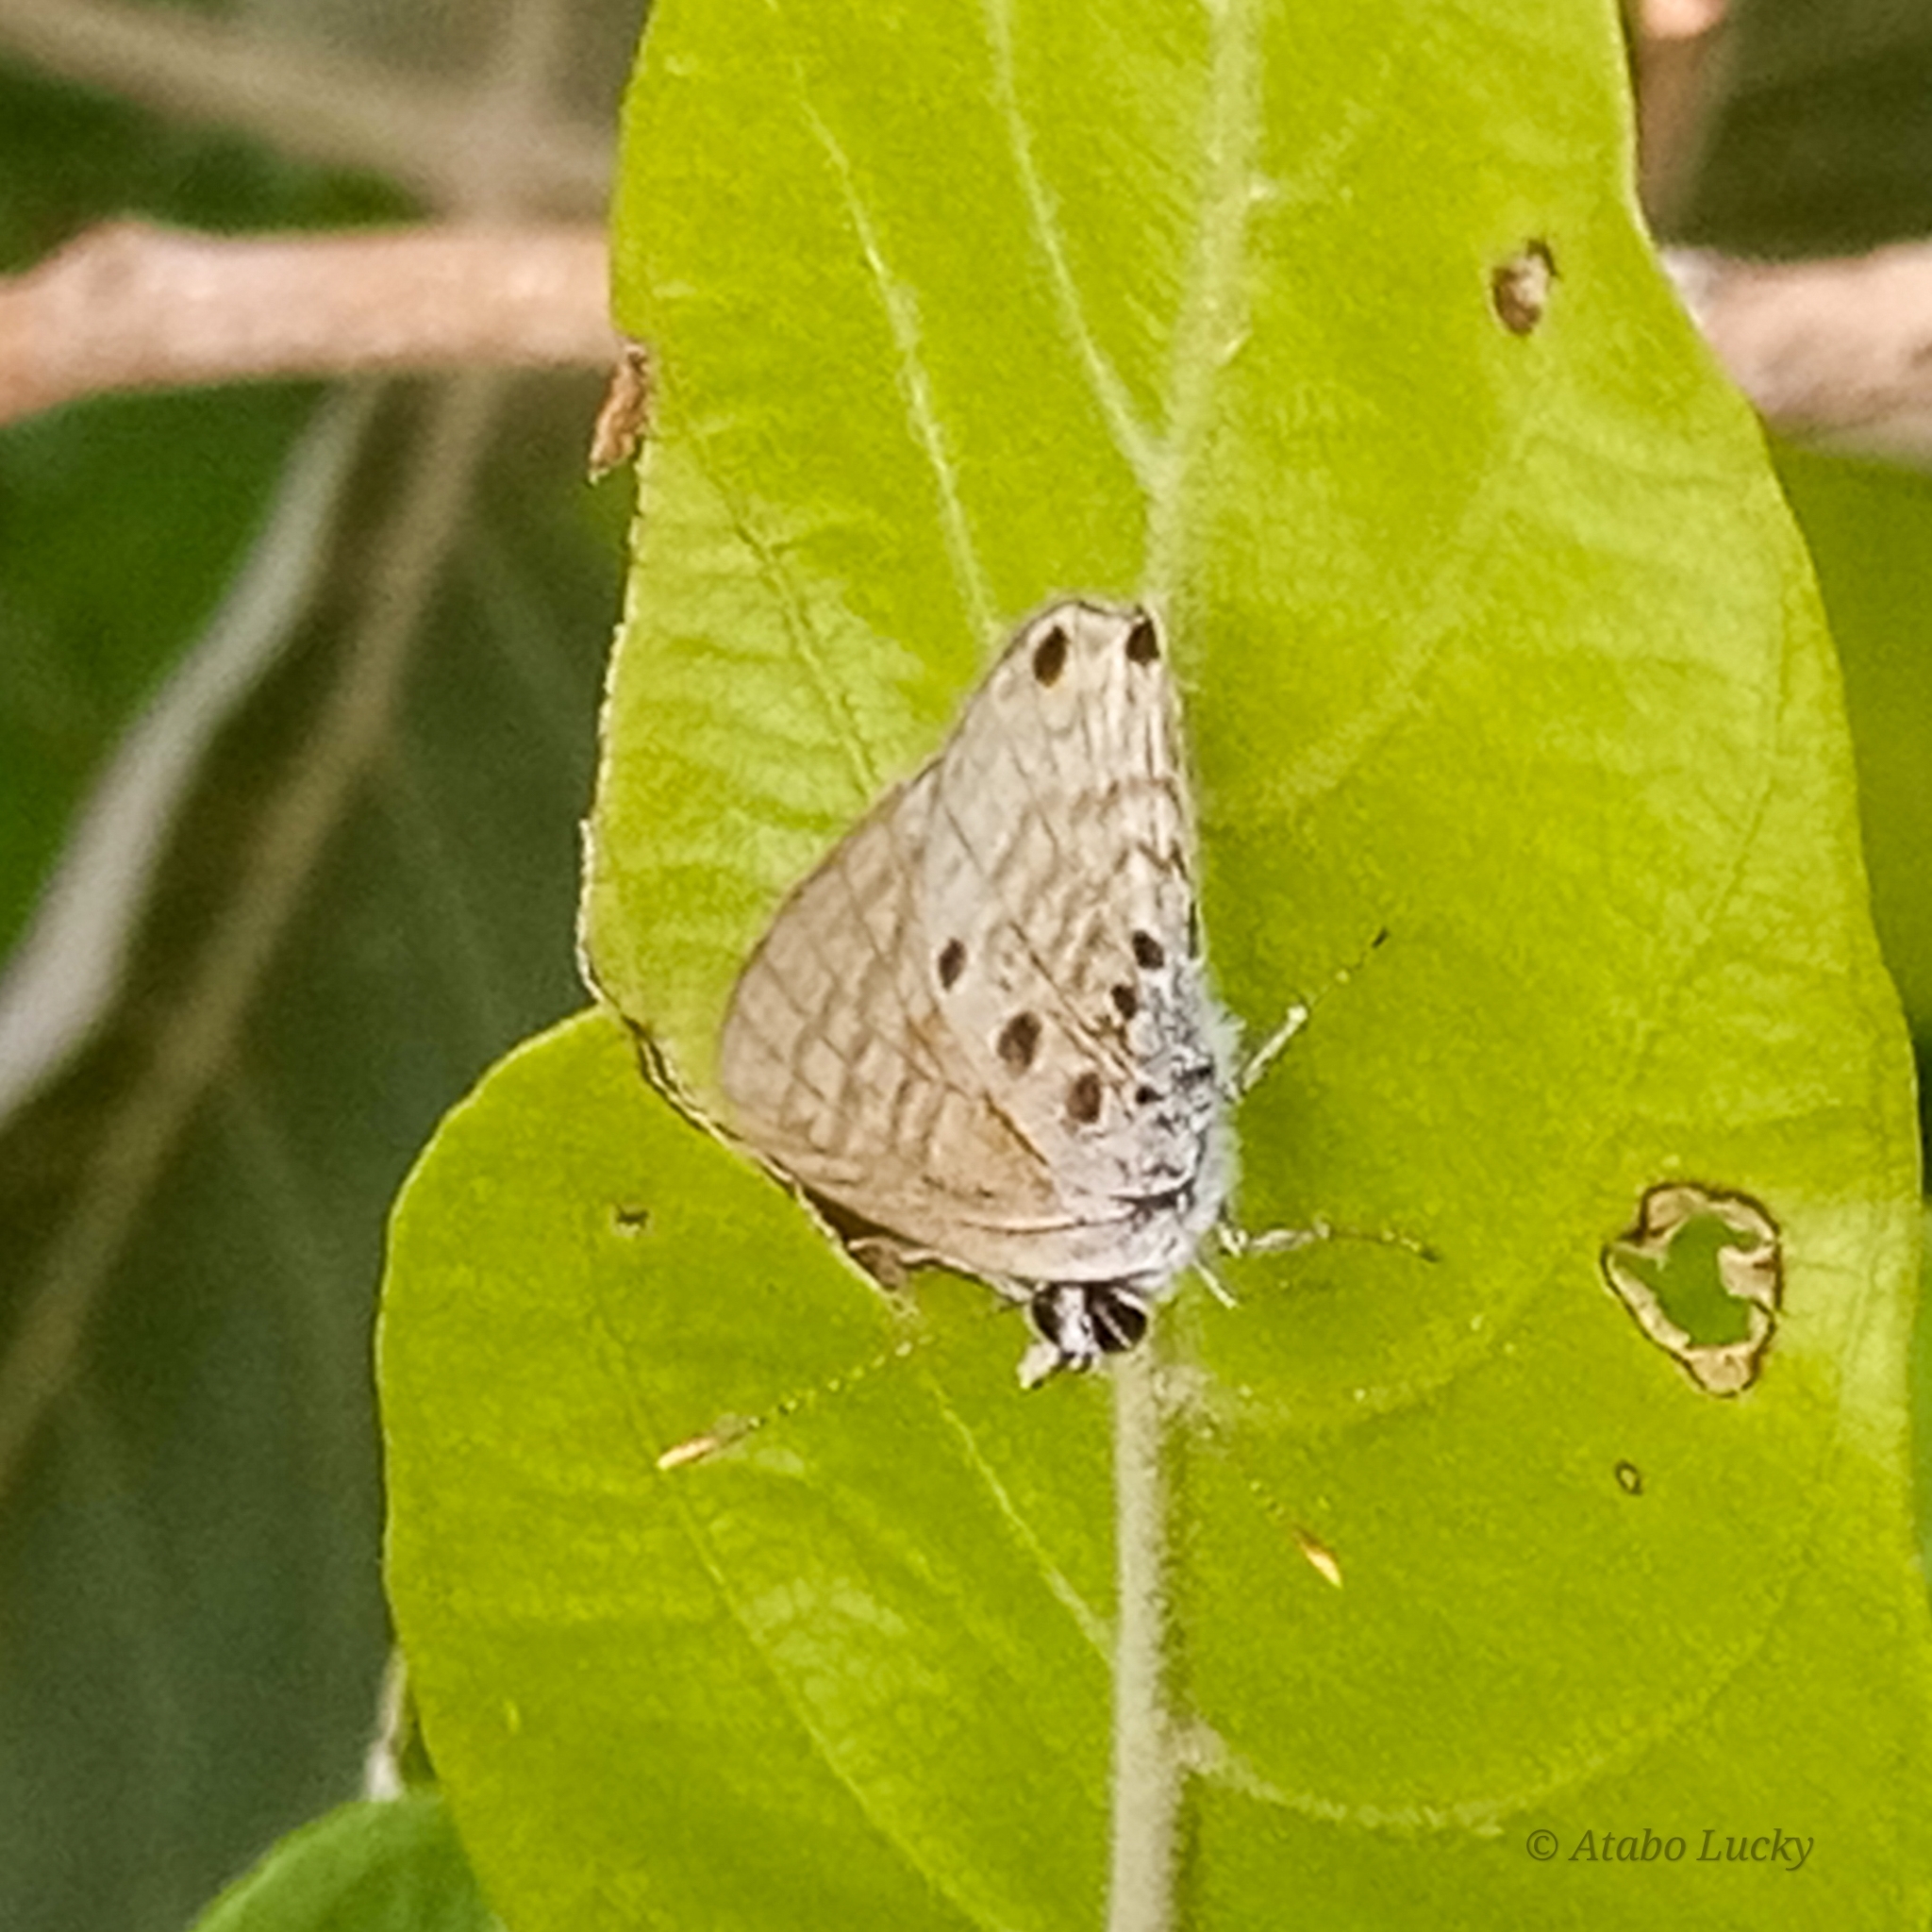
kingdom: Animalia
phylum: Arthropoda
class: Insecta
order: Lepidoptera
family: Lycaenidae
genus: Anthene
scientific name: Anthene amarah
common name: Black-striped hairtail
